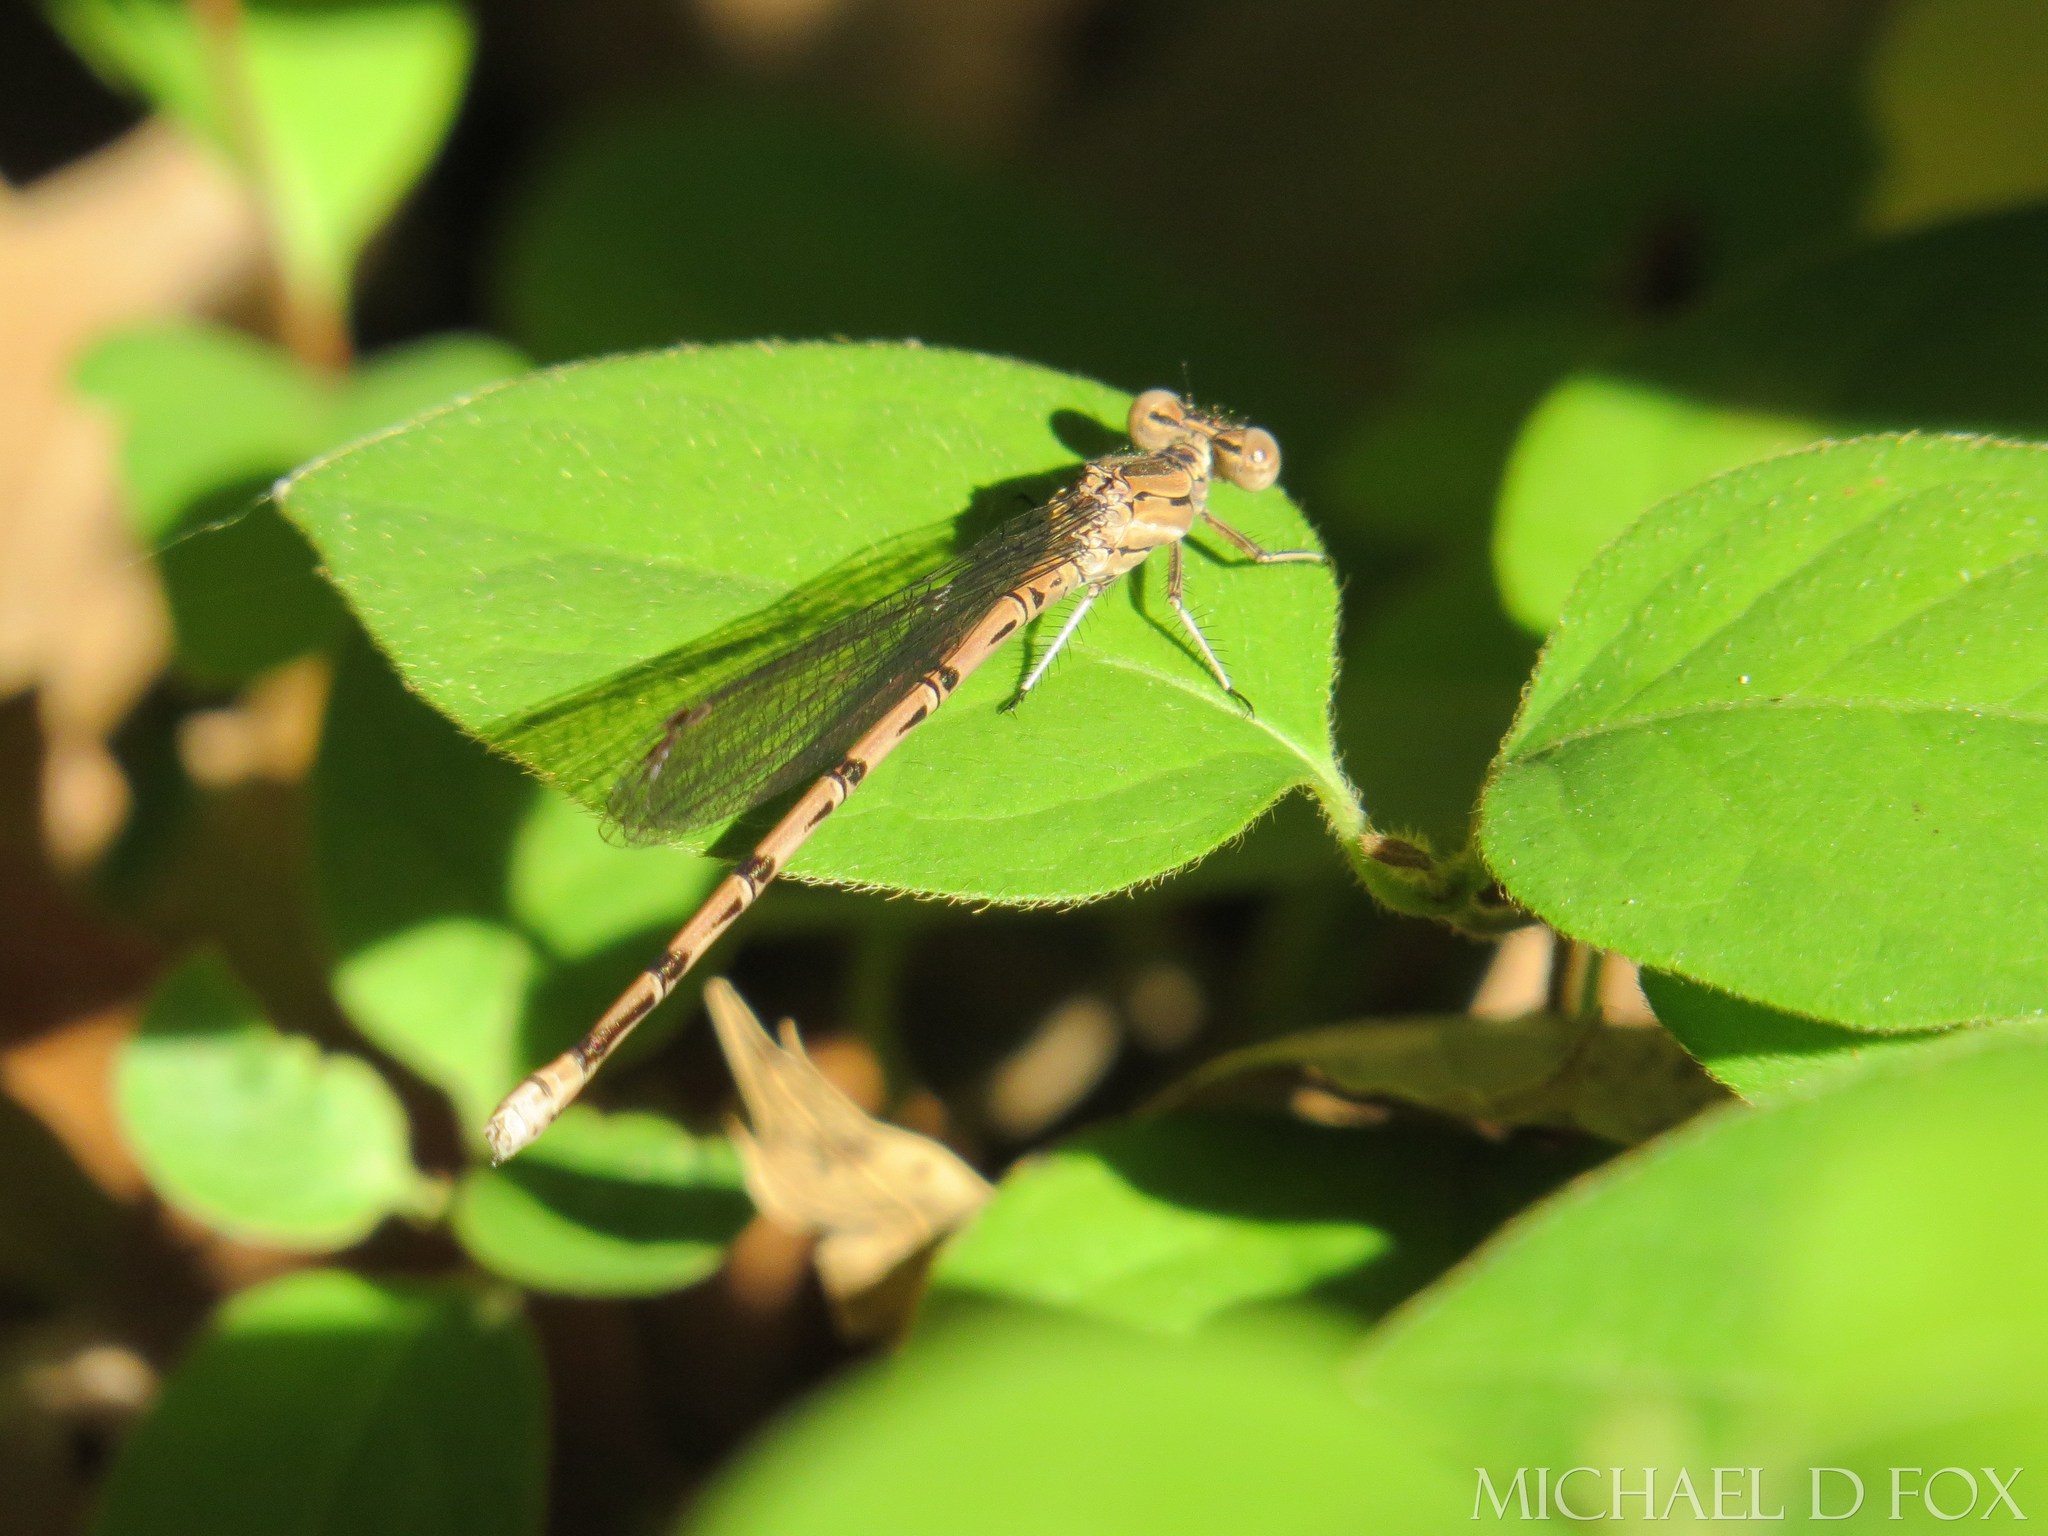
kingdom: Animalia
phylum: Arthropoda
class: Insecta
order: Odonata
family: Coenagrionidae
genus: Argia
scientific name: Argia funebris
